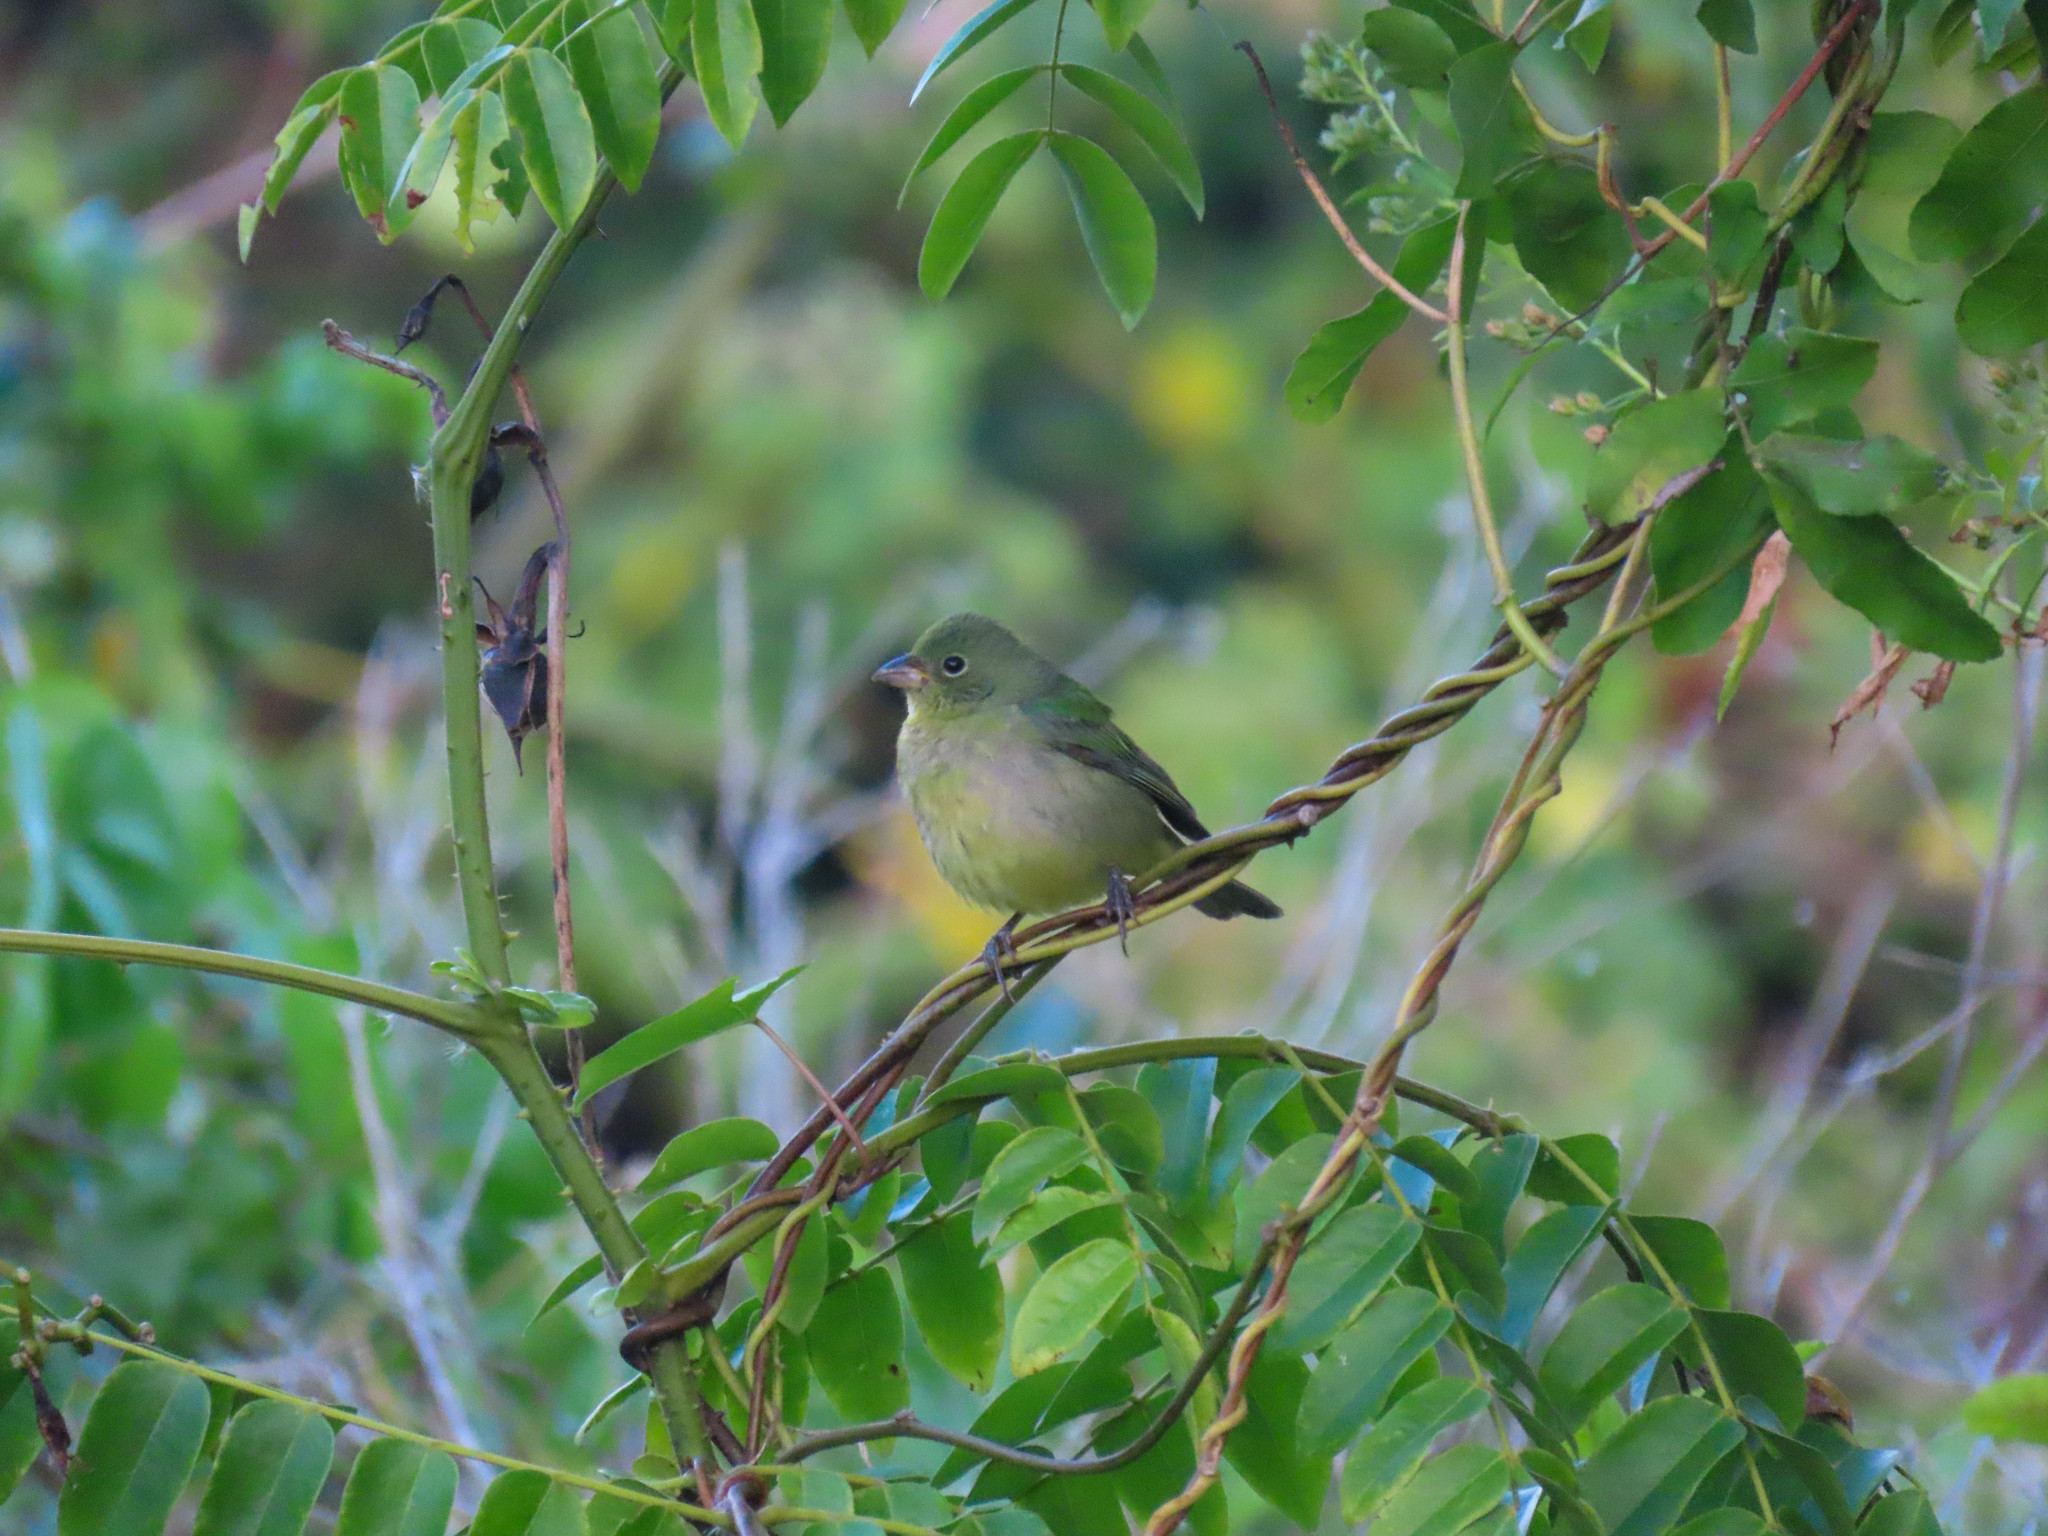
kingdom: Animalia
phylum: Chordata
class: Aves
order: Passeriformes
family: Cardinalidae
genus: Passerina
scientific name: Passerina ciris
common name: Painted bunting
